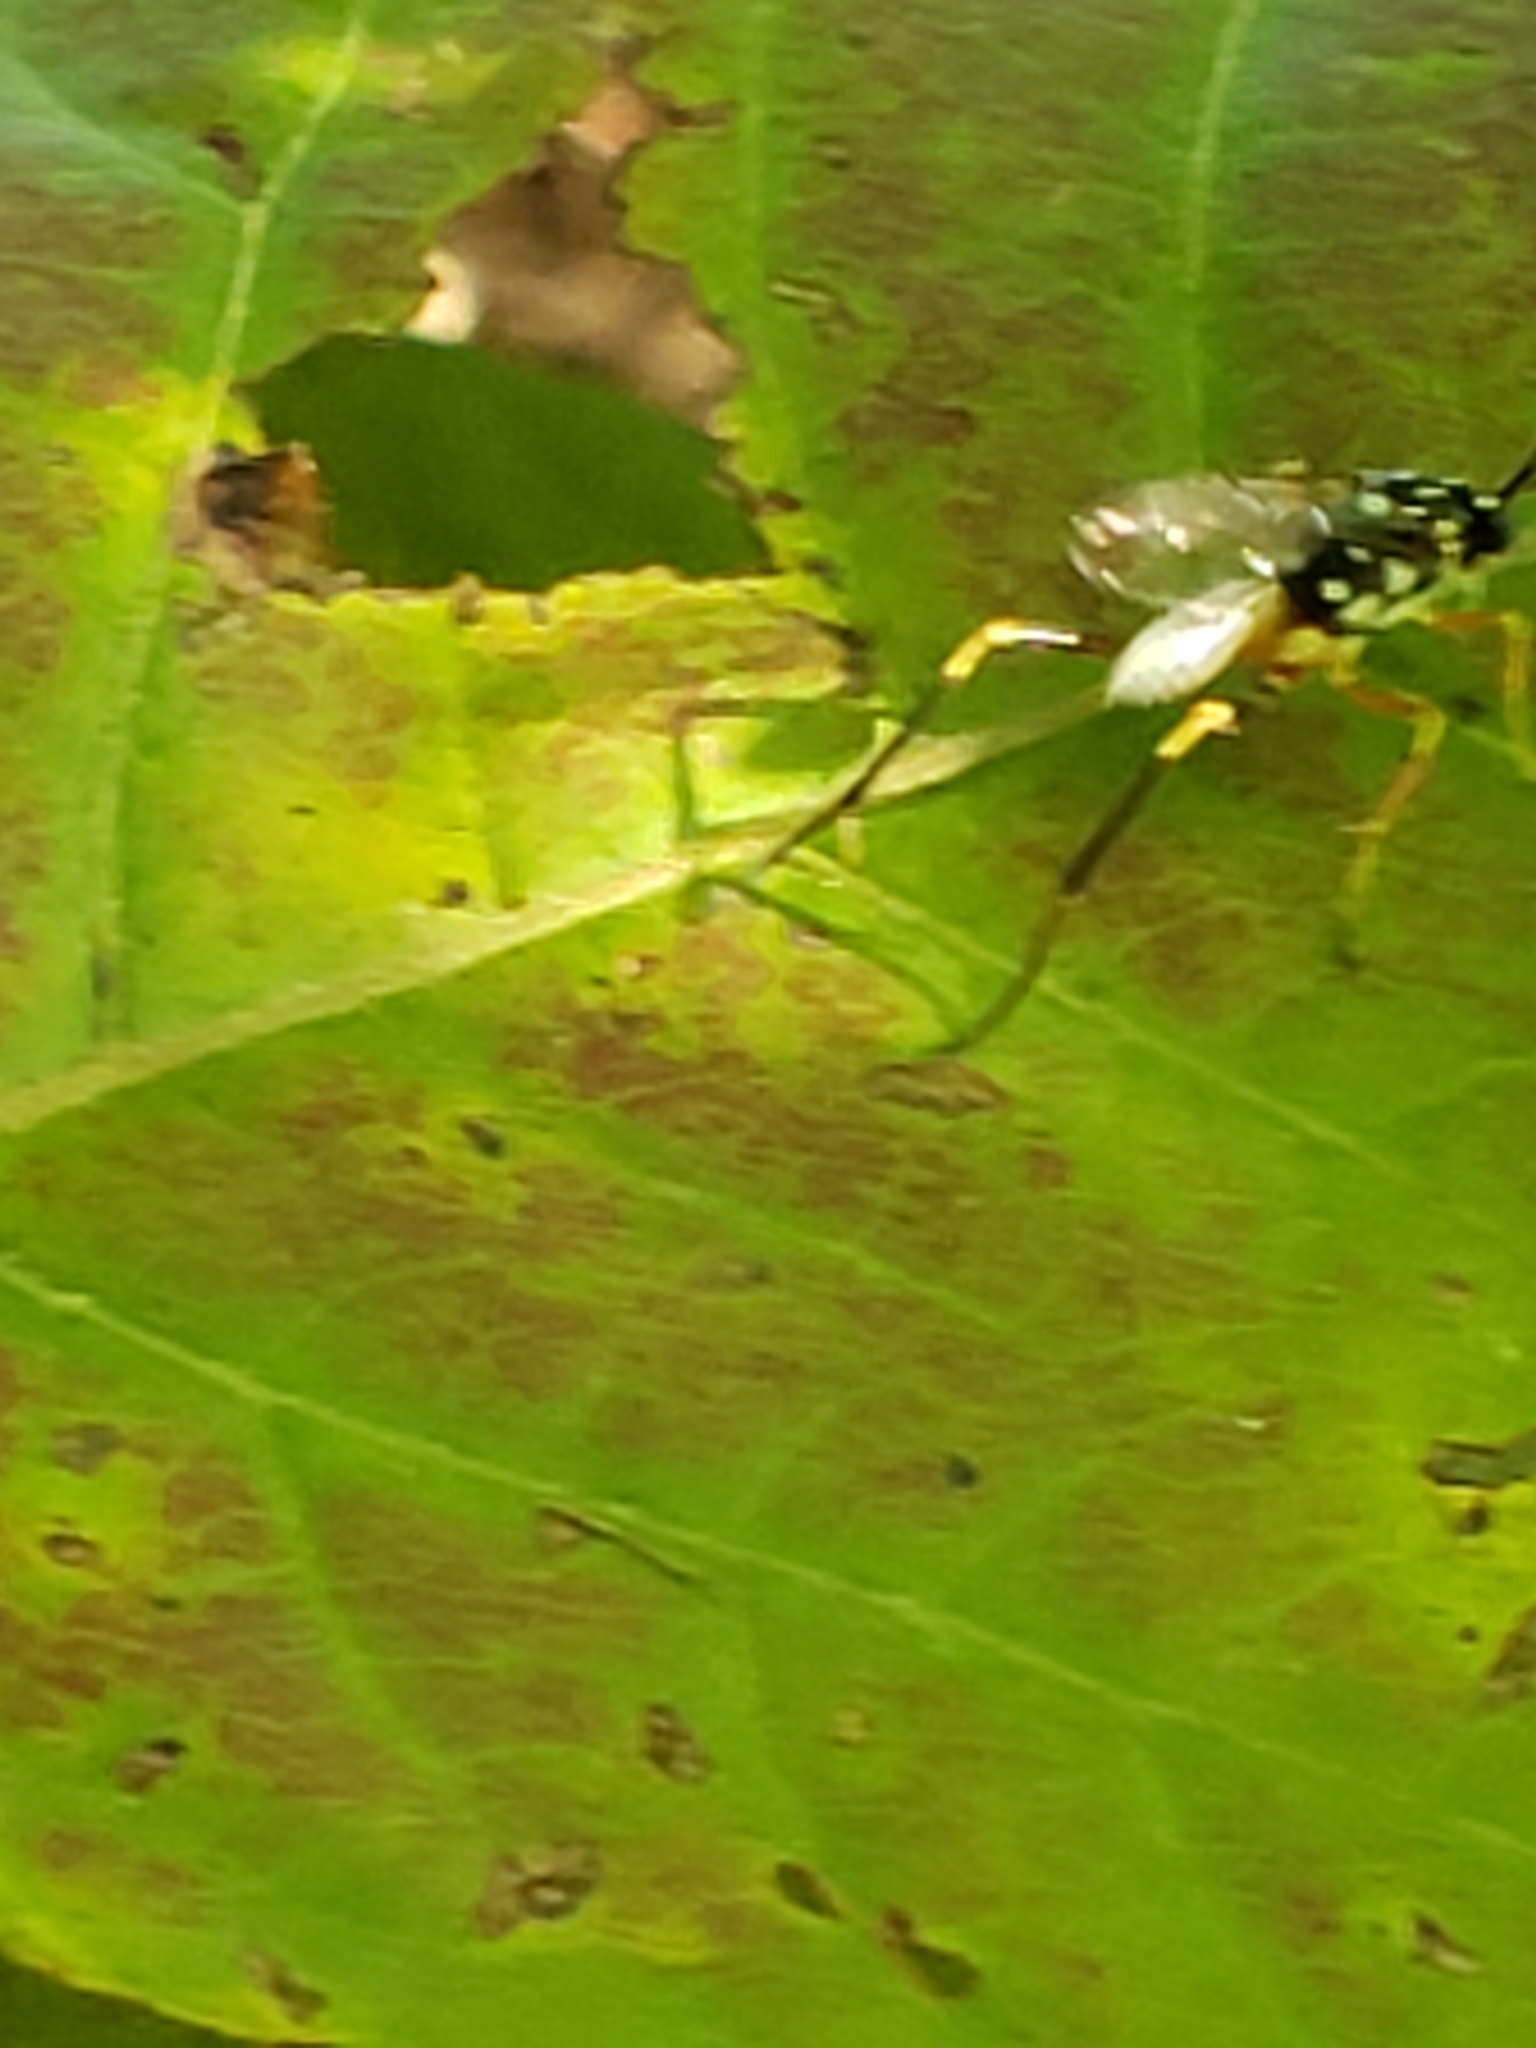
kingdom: Animalia
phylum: Arthropoda
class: Insecta
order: Hymenoptera
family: Ichneumonidae
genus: Baryceros
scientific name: Baryceros texanus
